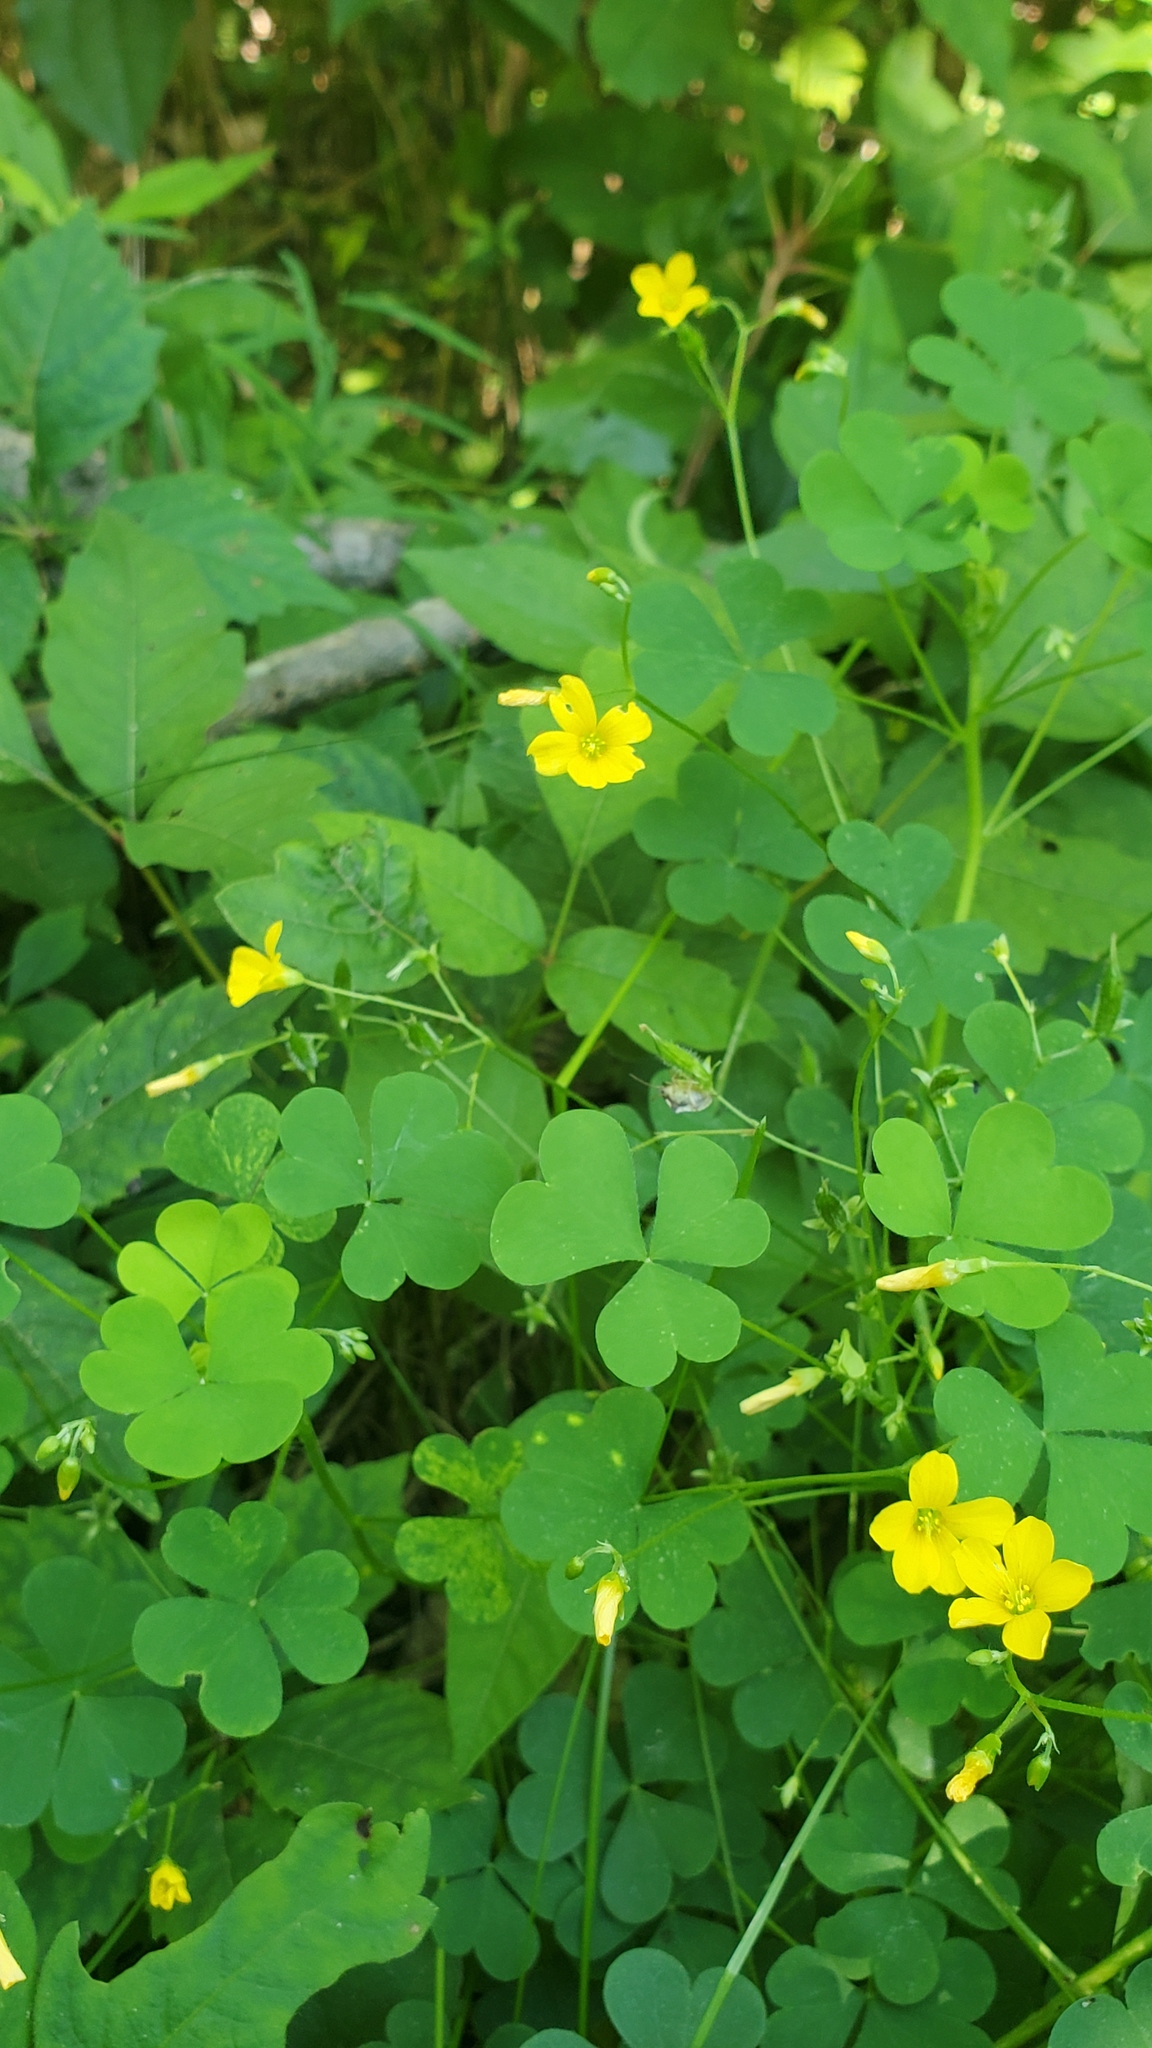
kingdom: Plantae
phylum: Tracheophyta
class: Magnoliopsida
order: Oxalidales
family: Oxalidaceae
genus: Oxalis
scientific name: Oxalis stricta
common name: Upright yellow-sorrel
